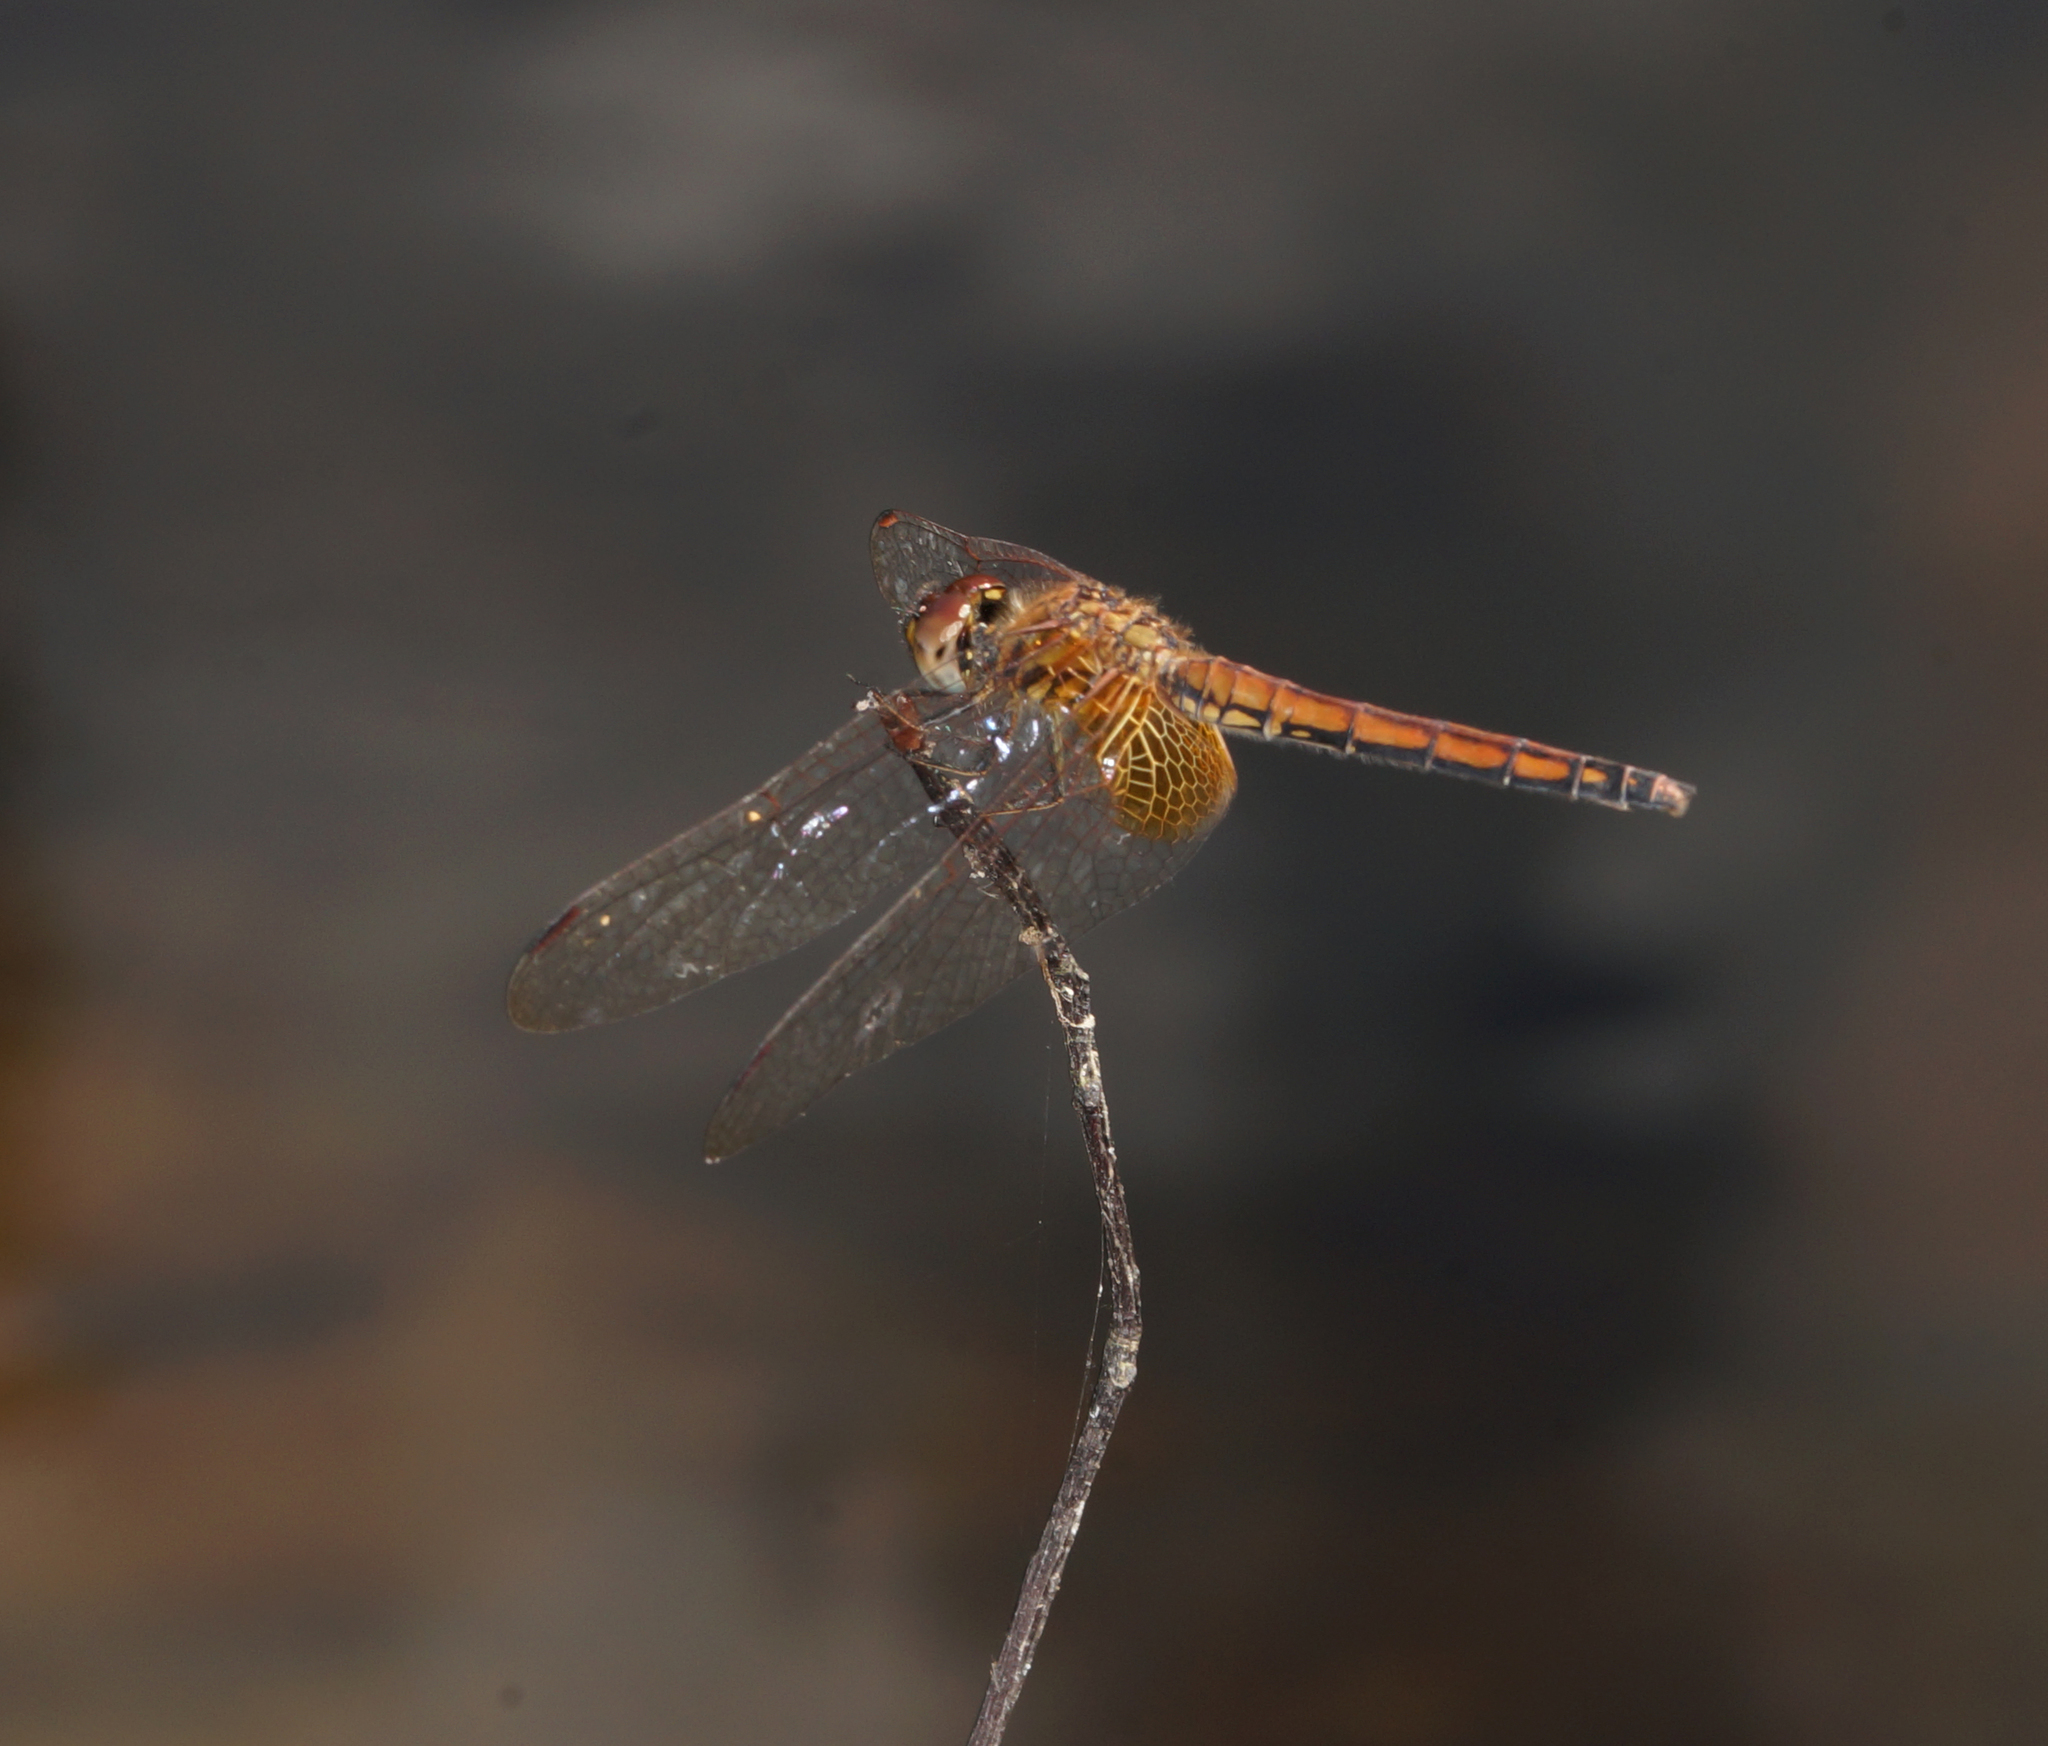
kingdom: Animalia
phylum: Arthropoda
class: Insecta
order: Odonata
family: Libellulidae
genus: Trithemis
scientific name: Trithemis aurora
